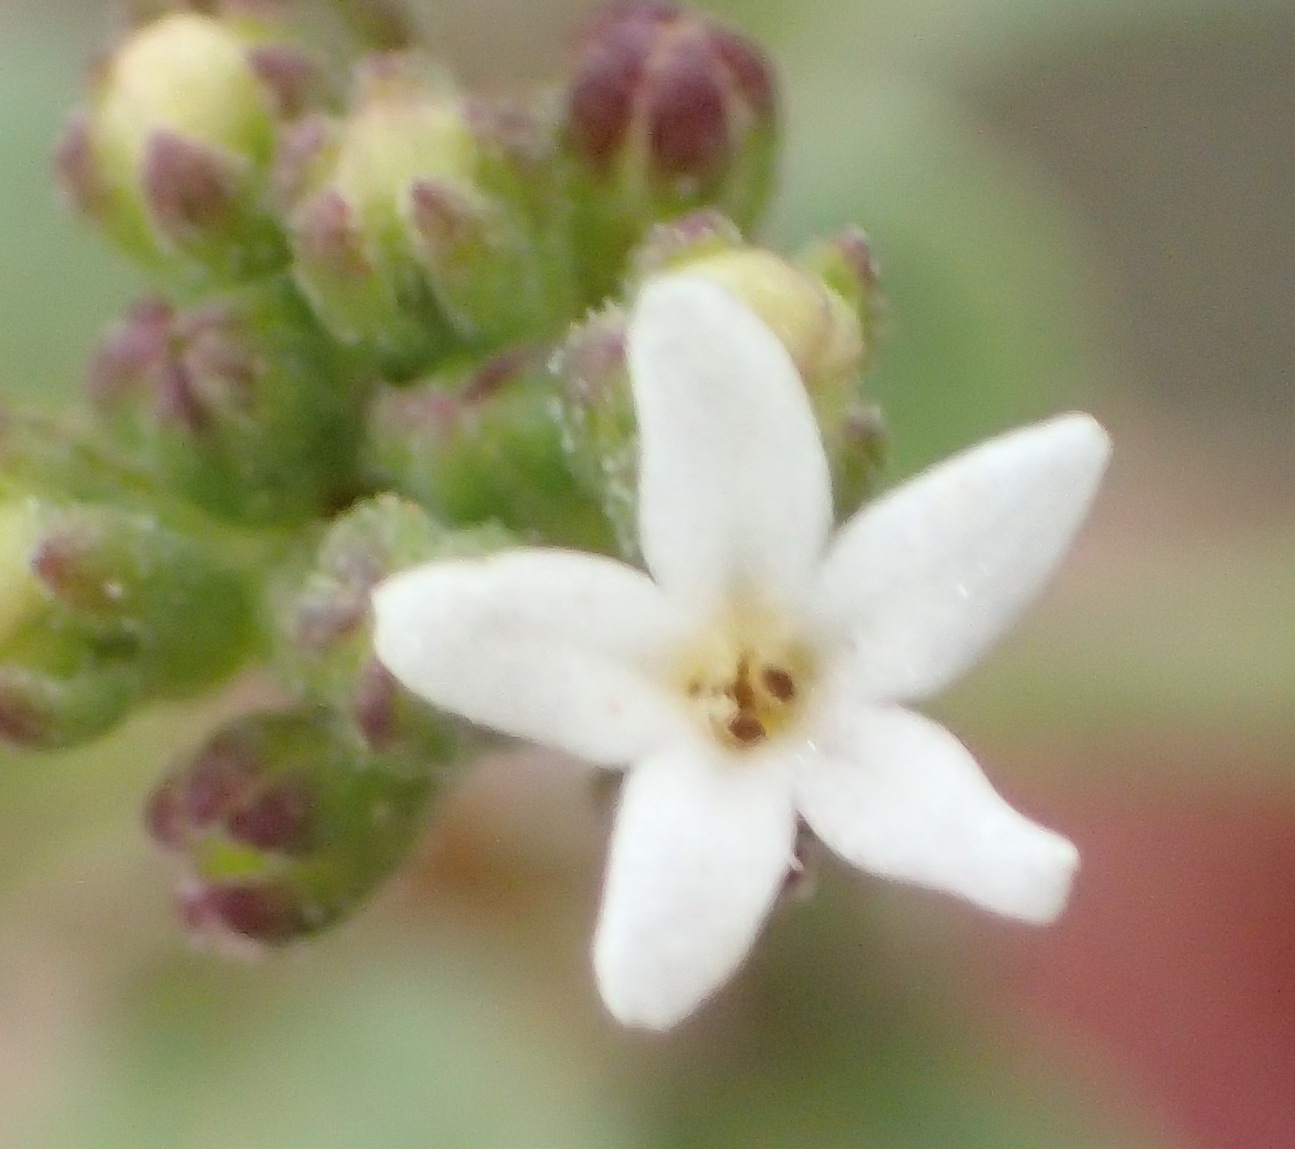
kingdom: Plantae
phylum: Tracheophyta
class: Magnoliopsida
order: Lamiales
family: Scrophulariaceae
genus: Manulea
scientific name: Manulea derustiana
